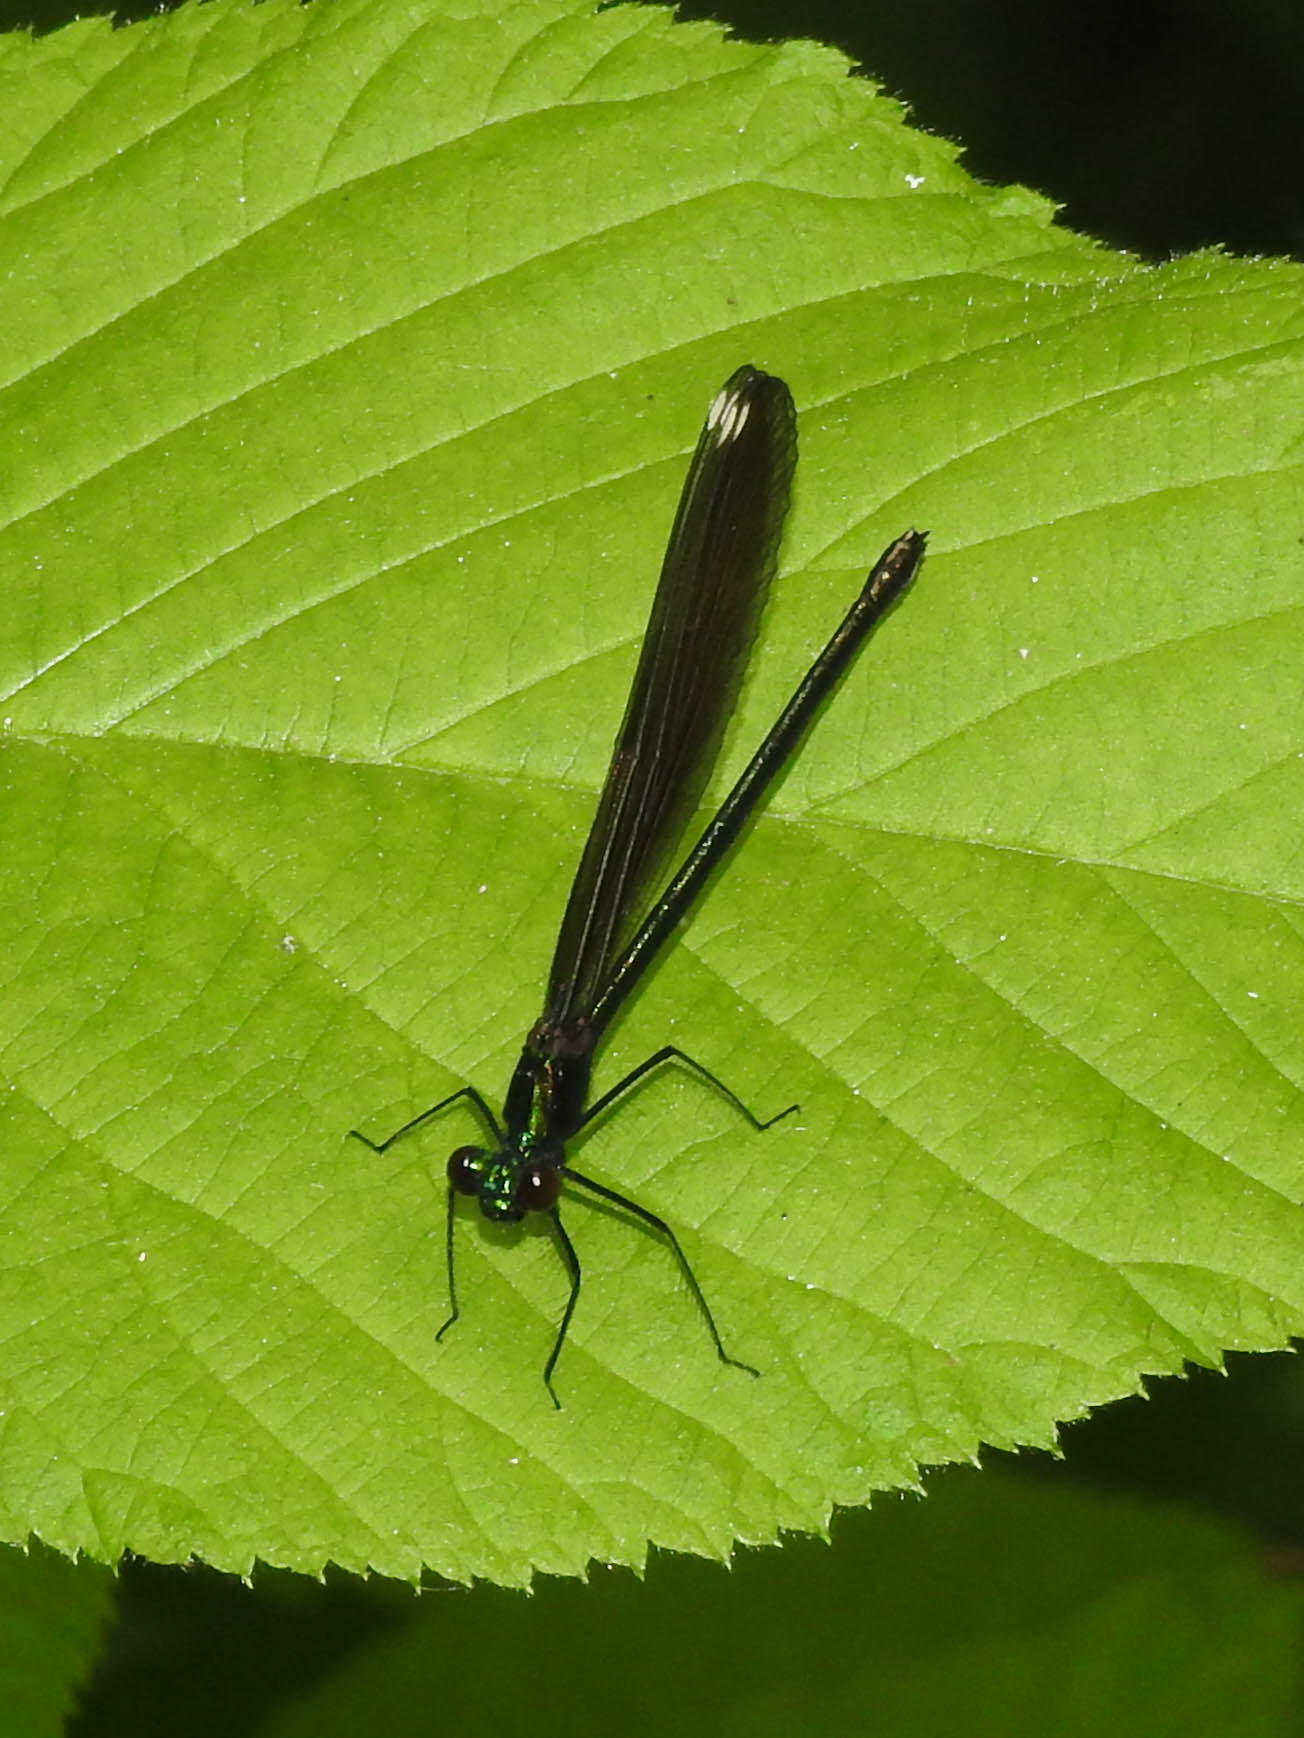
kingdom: Animalia
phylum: Arthropoda
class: Insecta
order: Odonata
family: Calopterygidae
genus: Calopteryx
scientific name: Calopteryx maculata
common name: Ebony jewelwing
